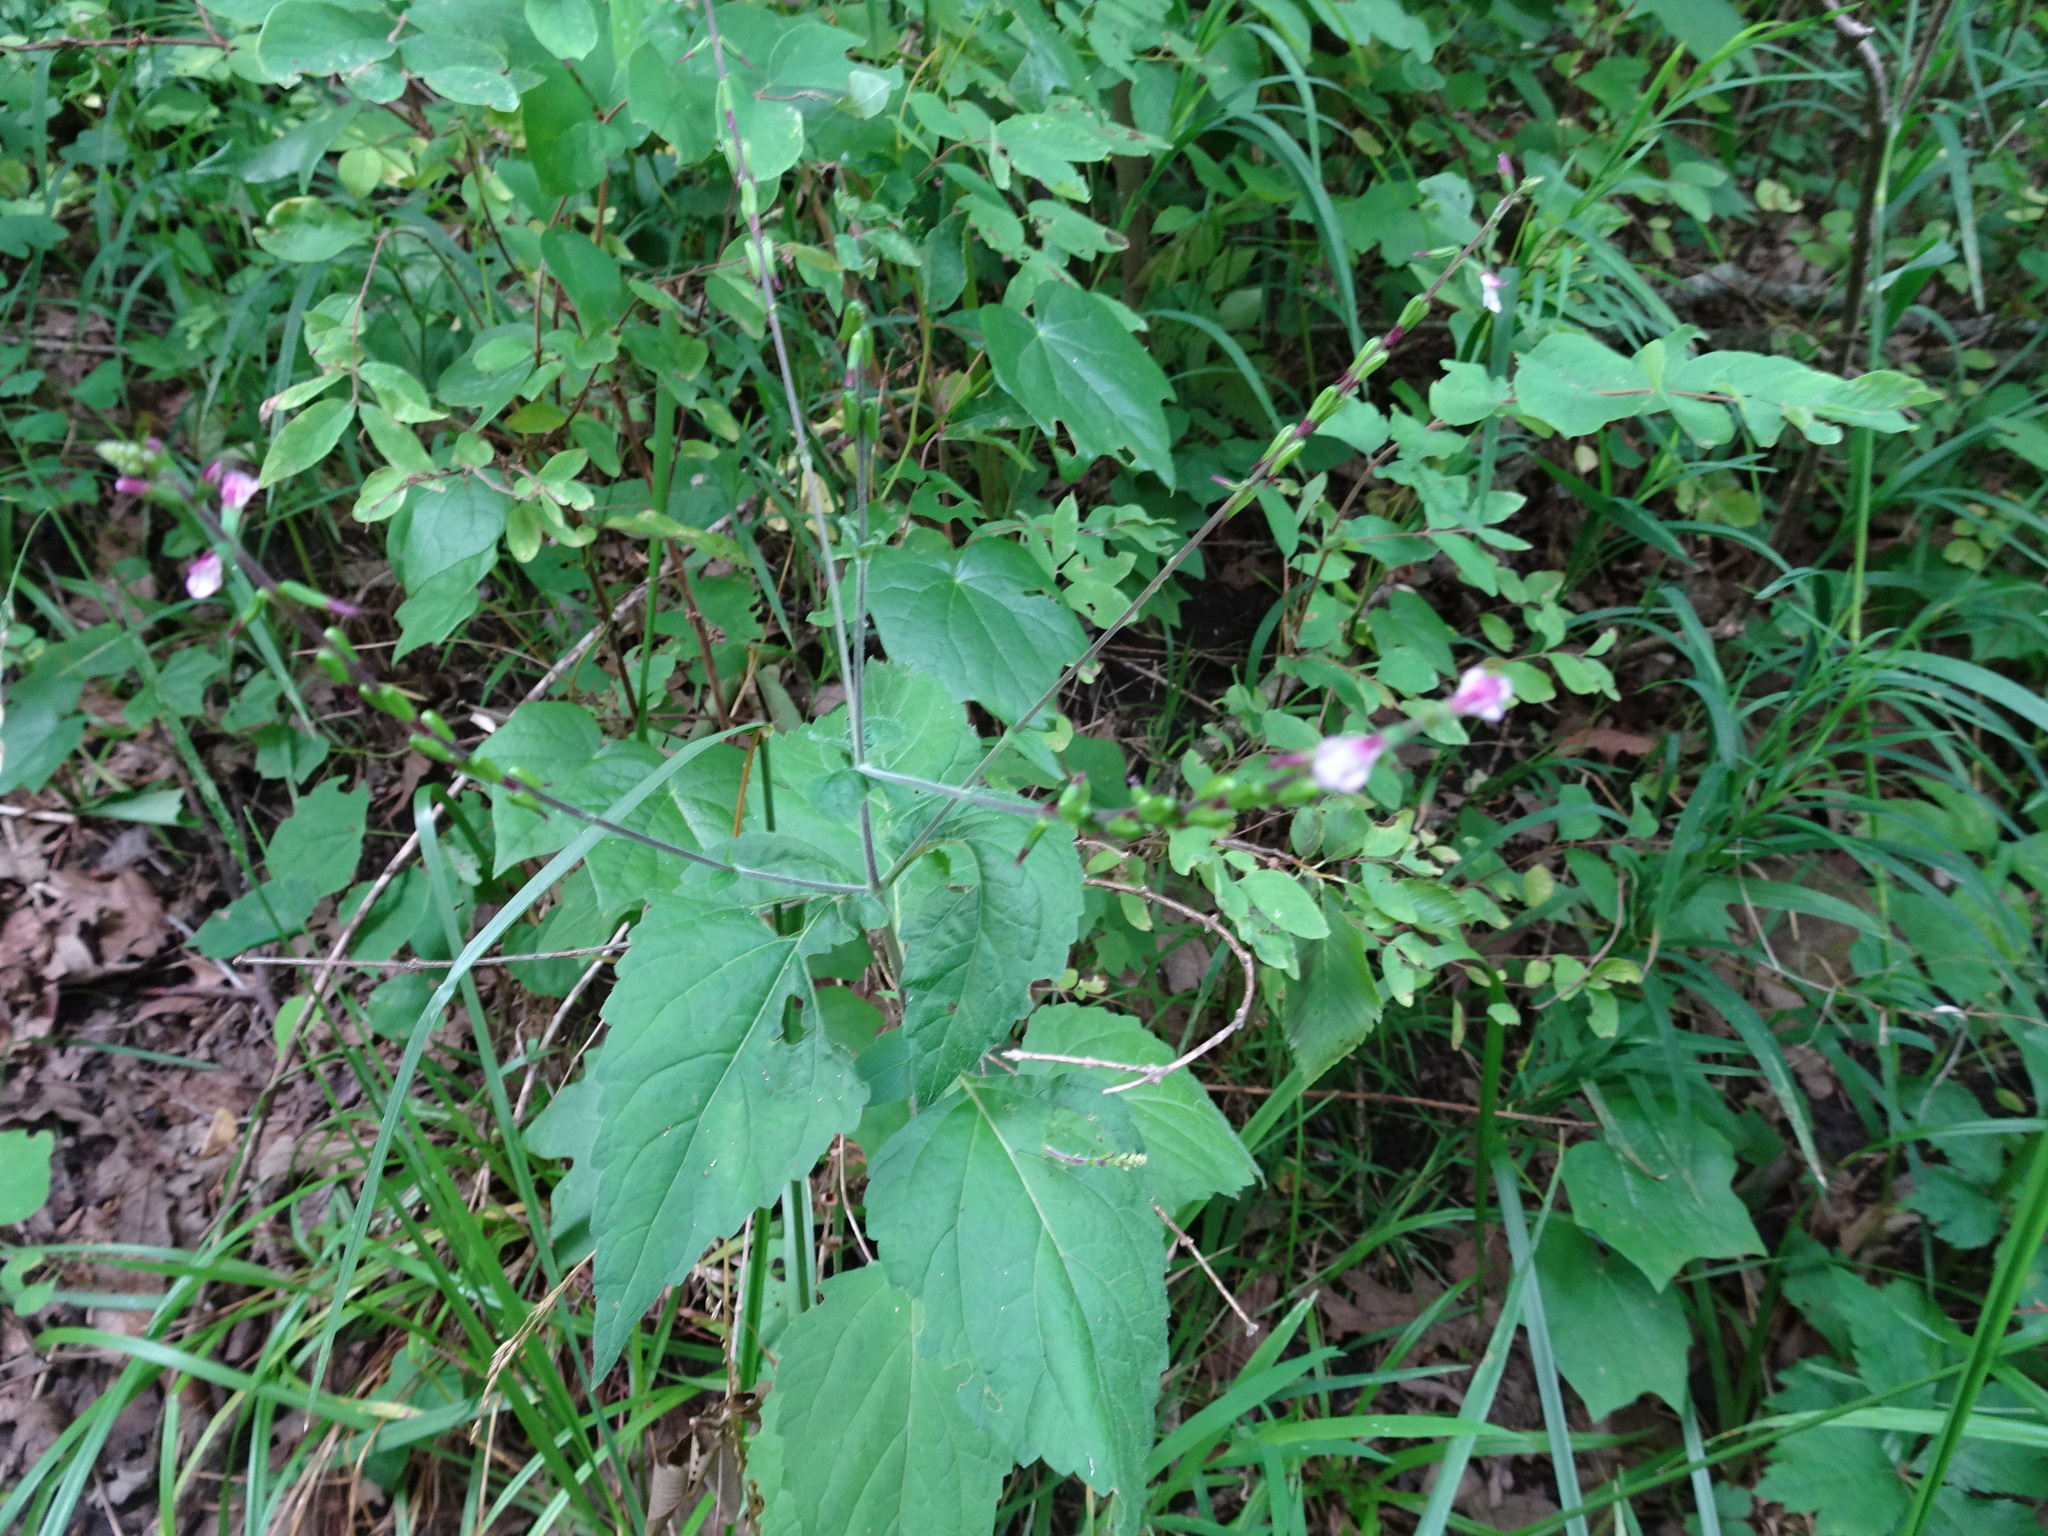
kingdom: Plantae
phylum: Tracheophyta
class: Magnoliopsida
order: Lamiales
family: Phrymaceae
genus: Phryma
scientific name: Phryma leptostachya
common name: American lopseed
